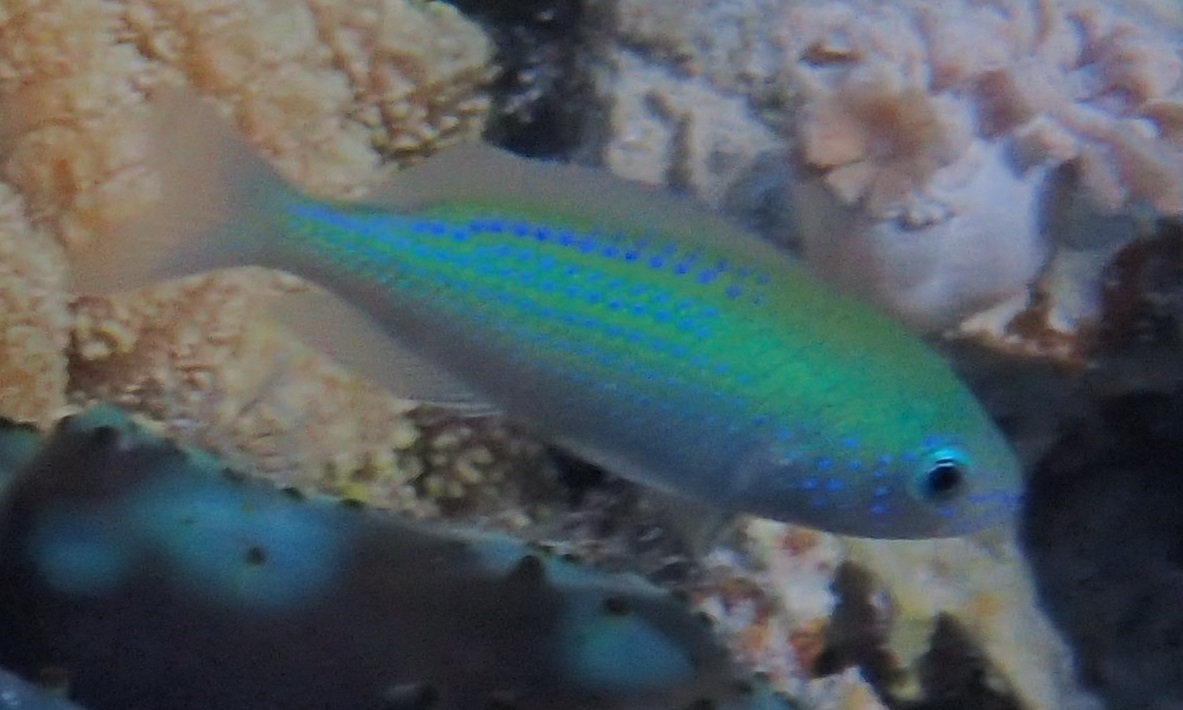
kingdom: Animalia
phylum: Chordata
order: Perciformes
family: Pomacentridae
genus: Pristotis
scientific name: Pristotis cyanostigma
